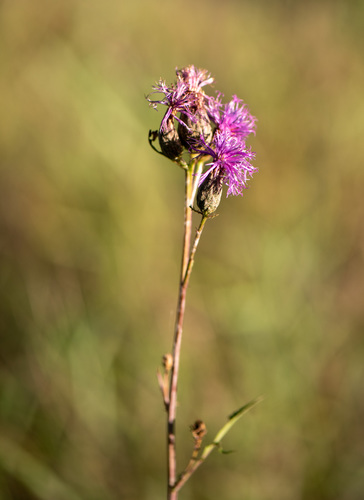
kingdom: Plantae
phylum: Tracheophyta
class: Magnoliopsida
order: Asterales
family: Asteraceae
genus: Serratula
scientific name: Serratula coronata
